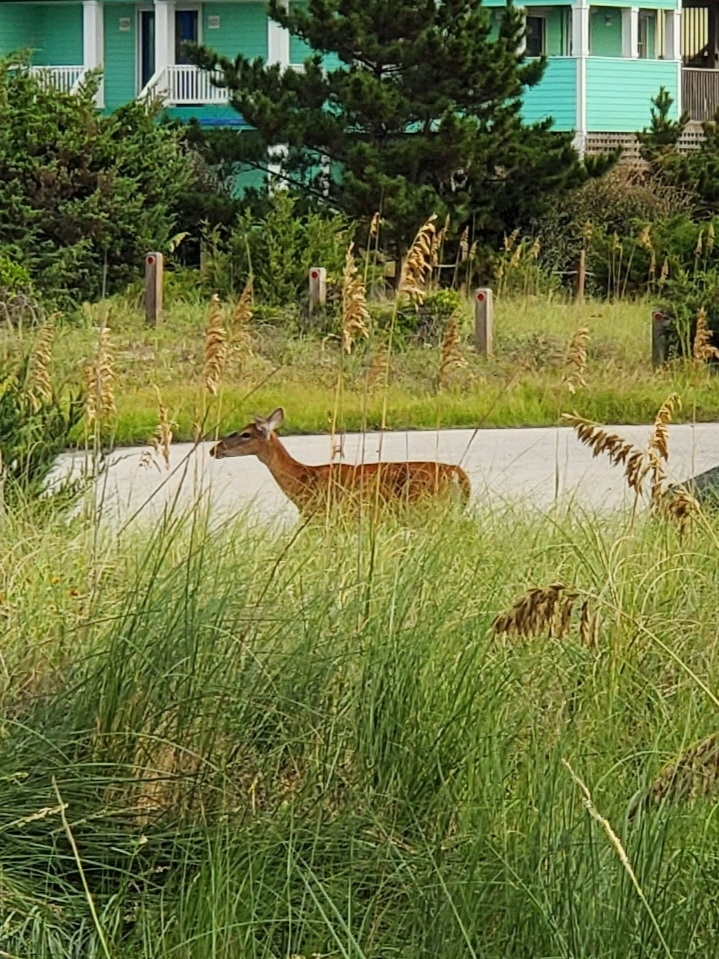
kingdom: Animalia
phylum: Chordata
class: Mammalia
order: Artiodactyla
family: Cervidae
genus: Odocoileus
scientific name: Odocoileus virginianus
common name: White-tailed deer
